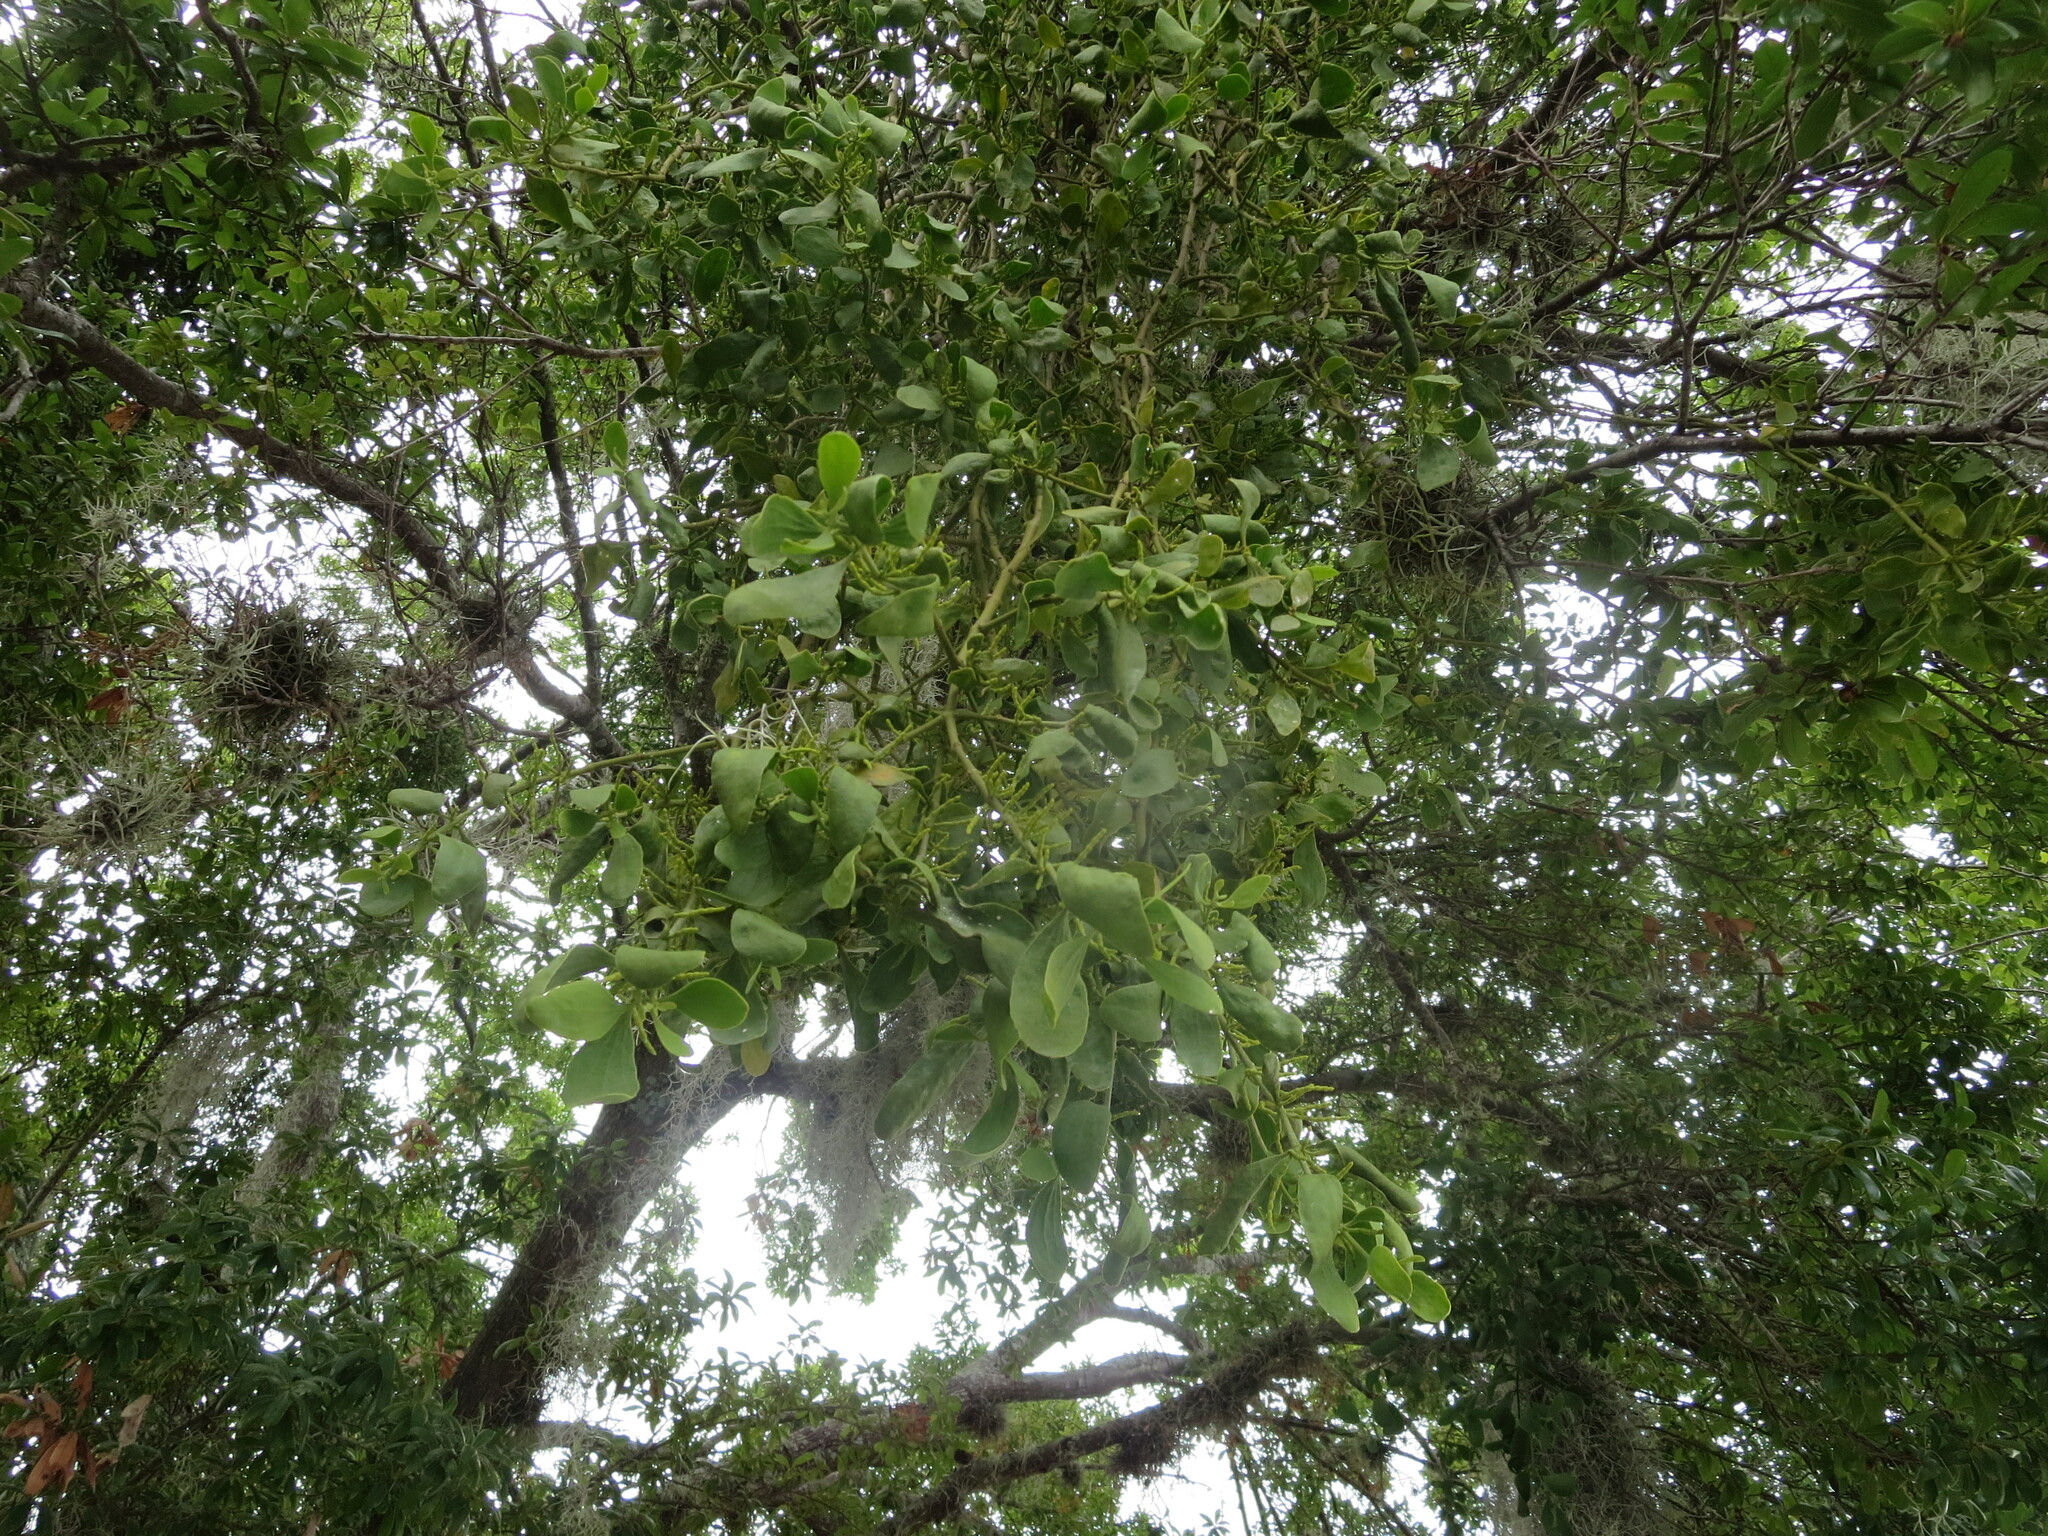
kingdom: Plantae
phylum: Tracheophyta
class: Magnoliopsida
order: Santalales
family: Viscaceae
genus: Phoradendron
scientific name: Phoradendron leucarpum
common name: Pacific mistletoe
